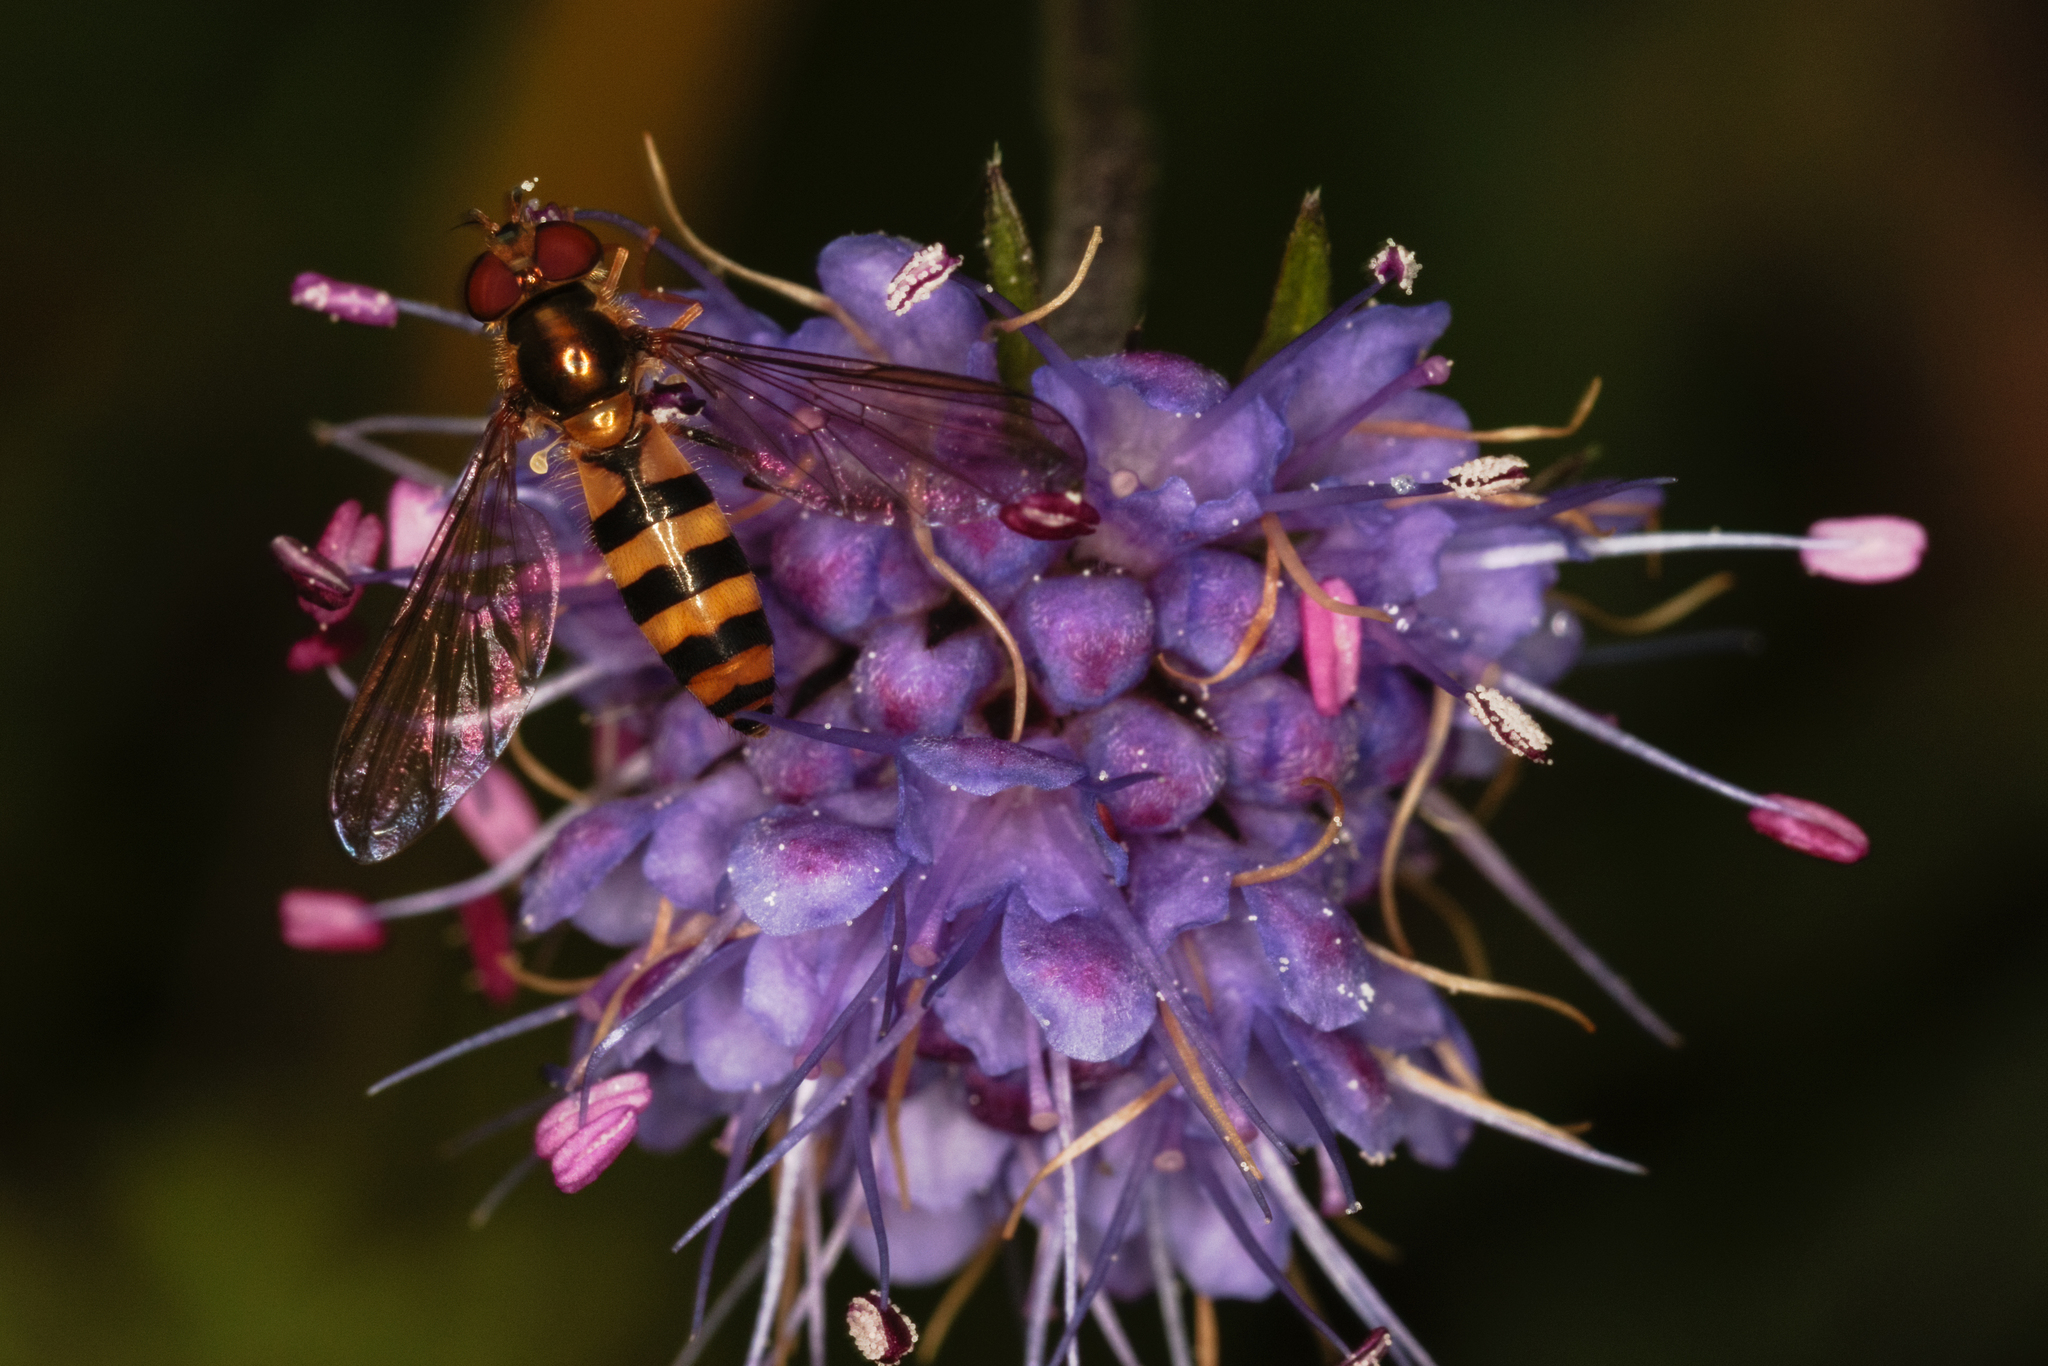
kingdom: Animalia
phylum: Arthropoda
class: Insecta
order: Diptera
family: Syrphidae
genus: Meliscaeva
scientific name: Meliscaeva cinctella
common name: American thintail fly
